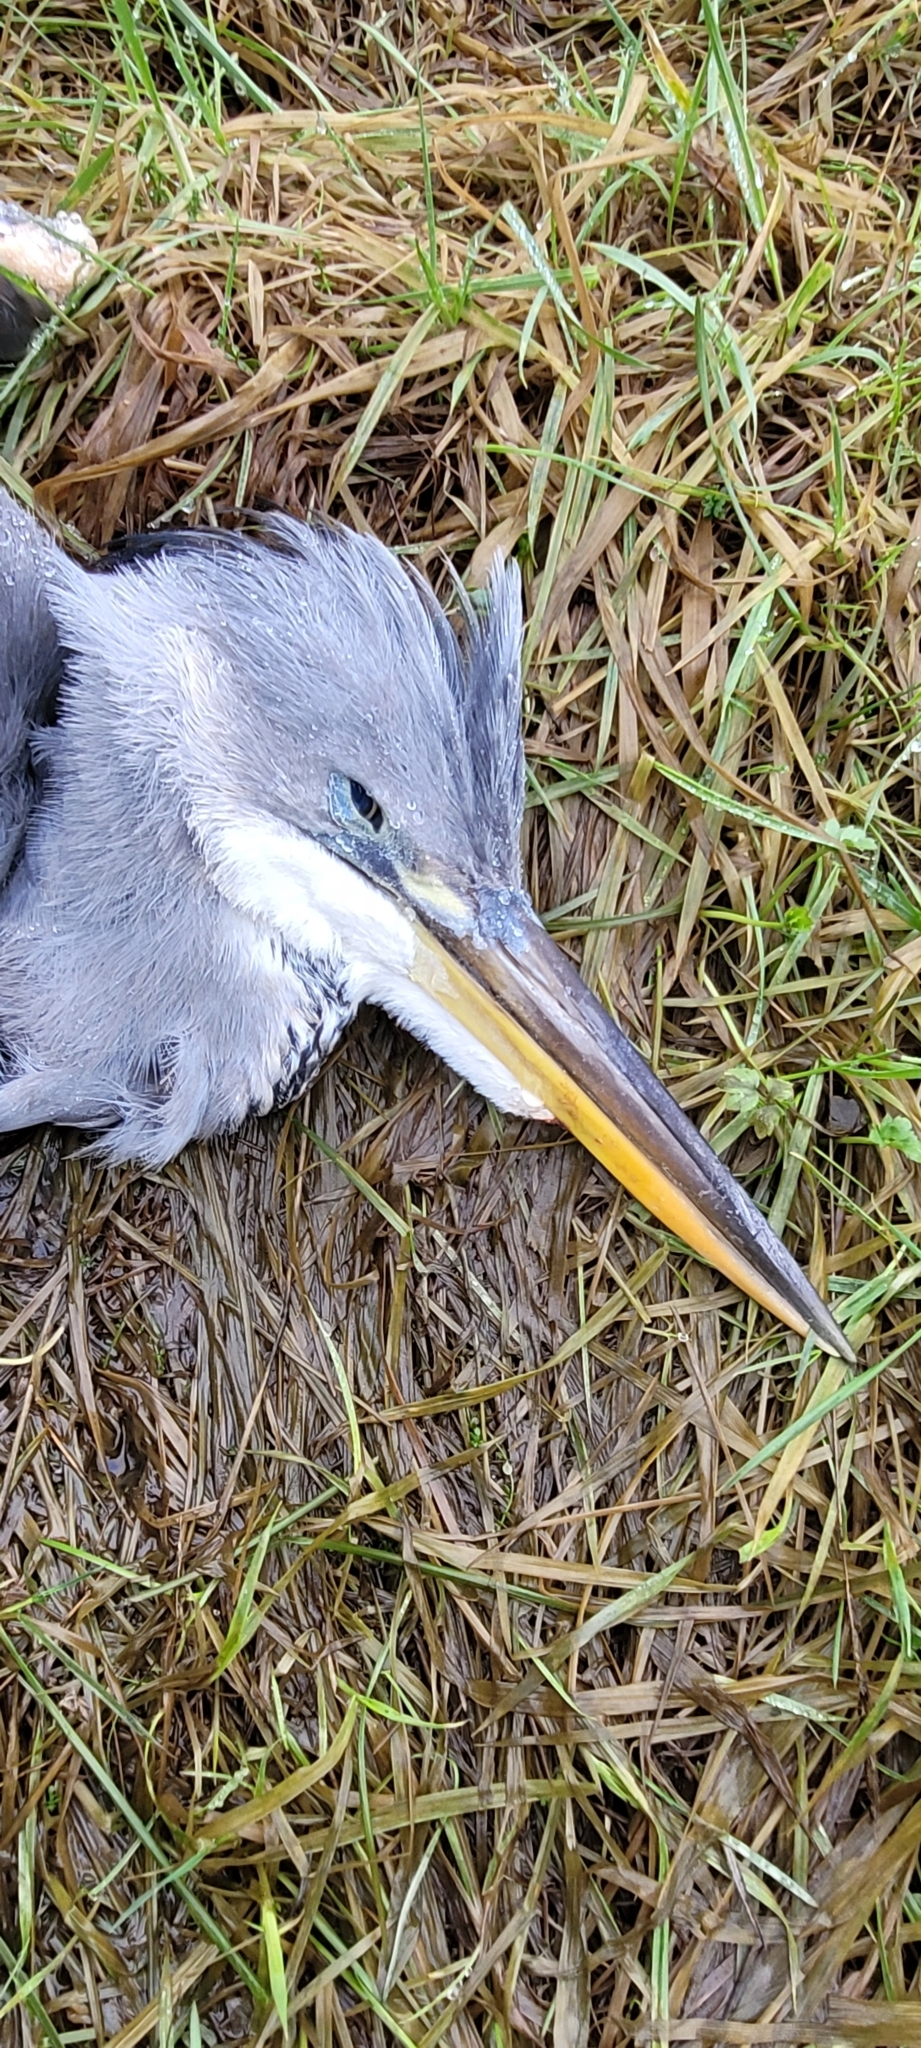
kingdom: Animalia
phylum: Chordata
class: Aves
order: Pelecaniformes
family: Ardeidae
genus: Ardea
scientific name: Ardea cinerea
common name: Grey heron
